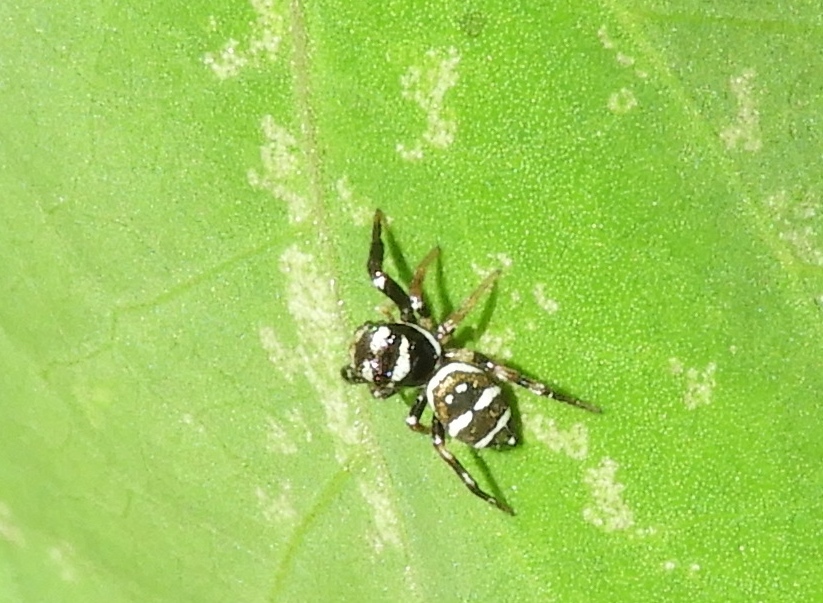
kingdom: Animalia
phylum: Arthropoda
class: Arachnida
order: Araneae
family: Salticidae
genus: Sassacus
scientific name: Sassacus
